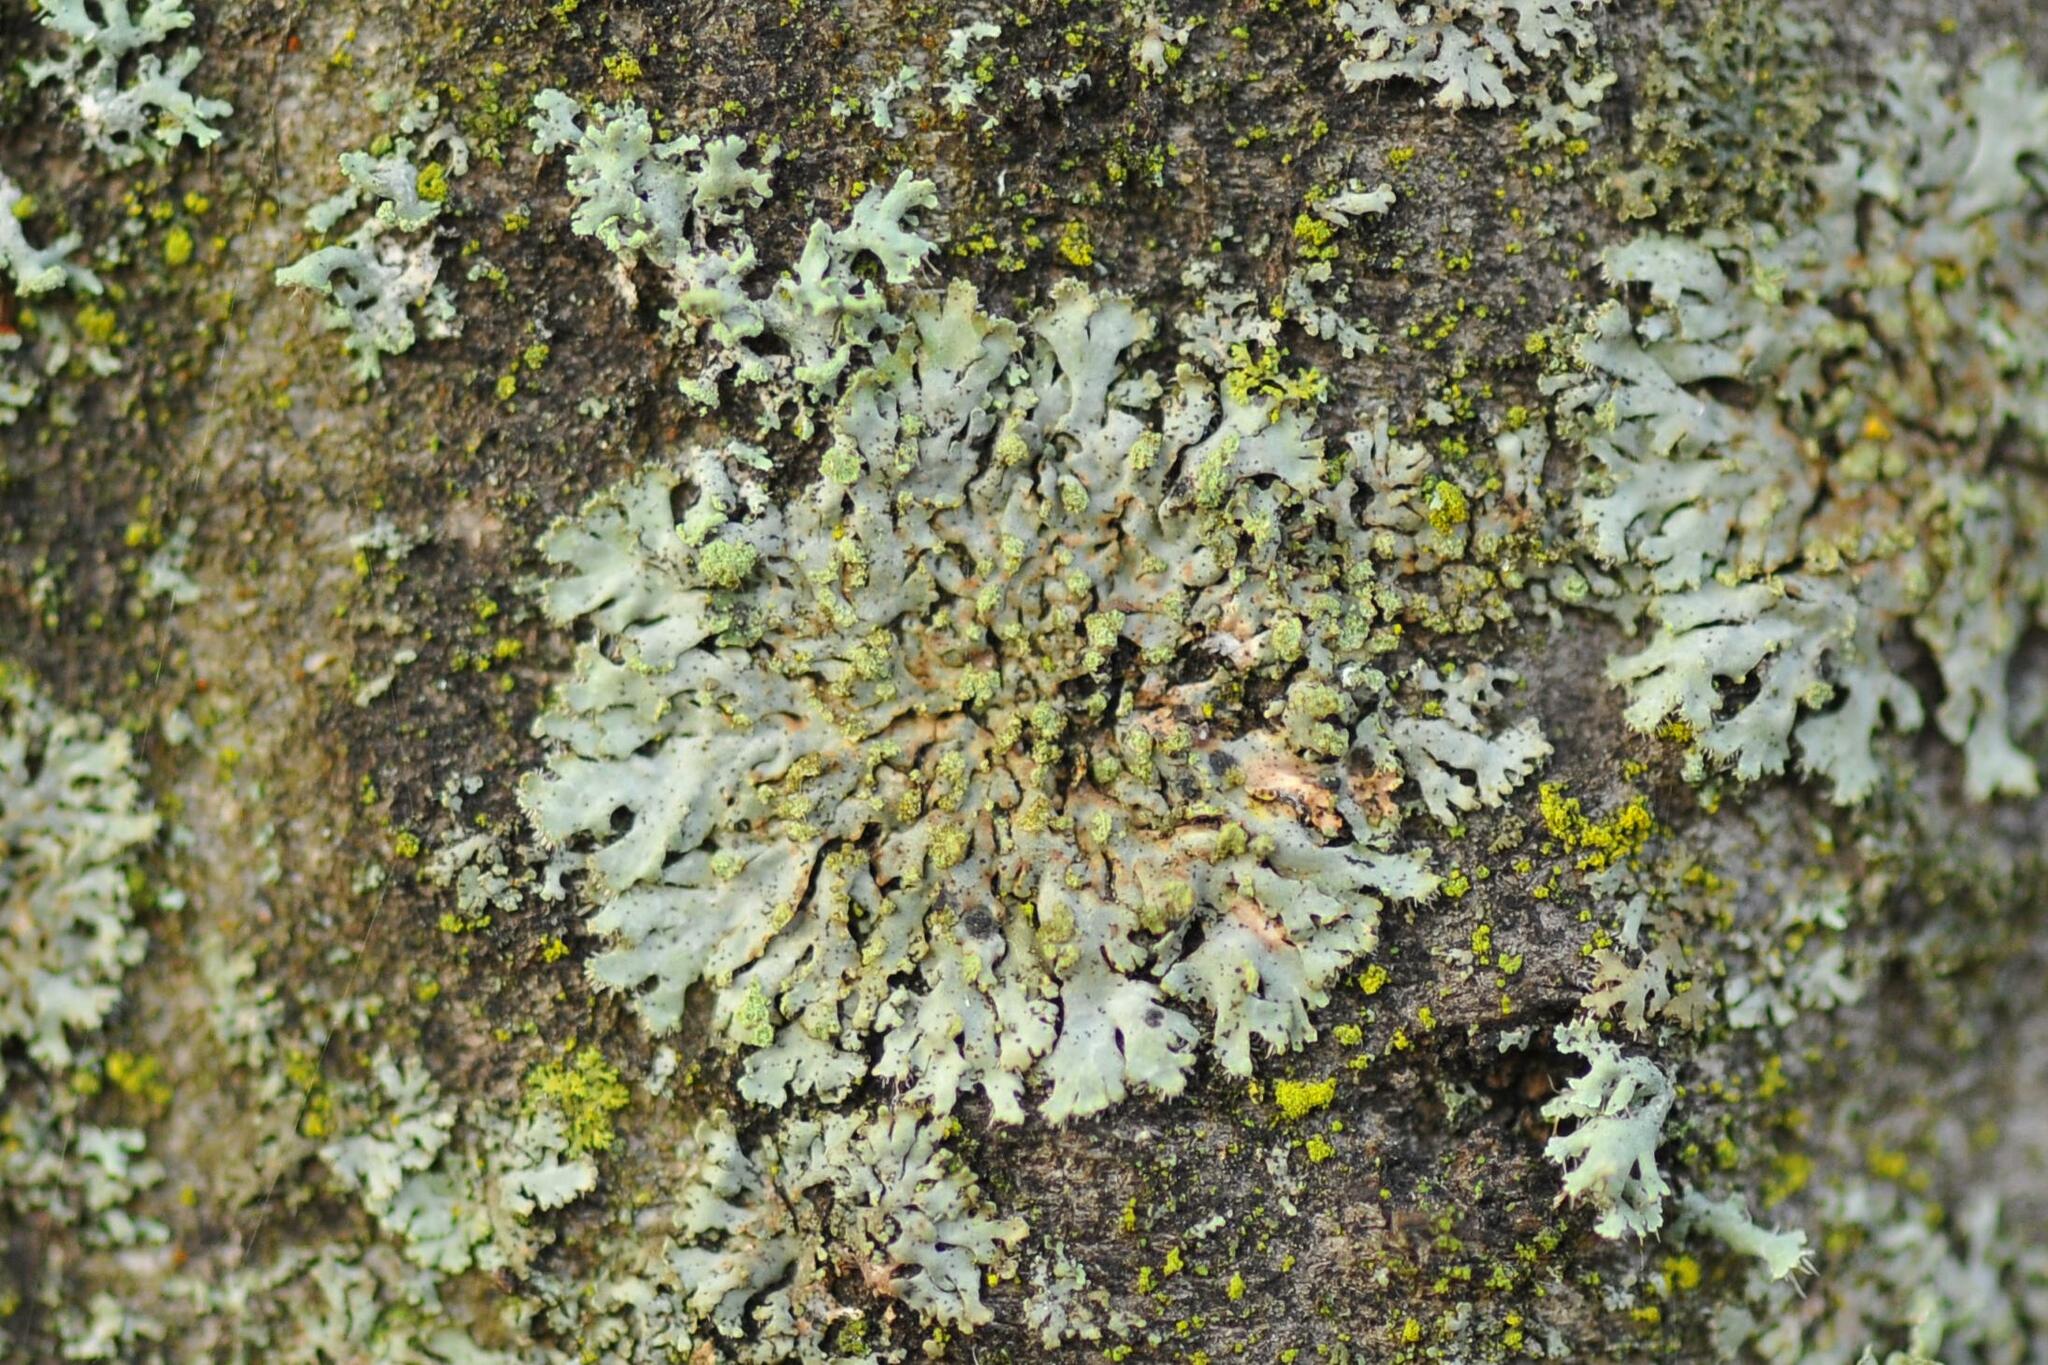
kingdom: Fungi
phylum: Ascomycota
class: Lecanoromycetes
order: Caliciales
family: Physciaceae
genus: Phaeophyscia
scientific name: Phaeophyscia orbicularis
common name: Mealy shadow lichen
